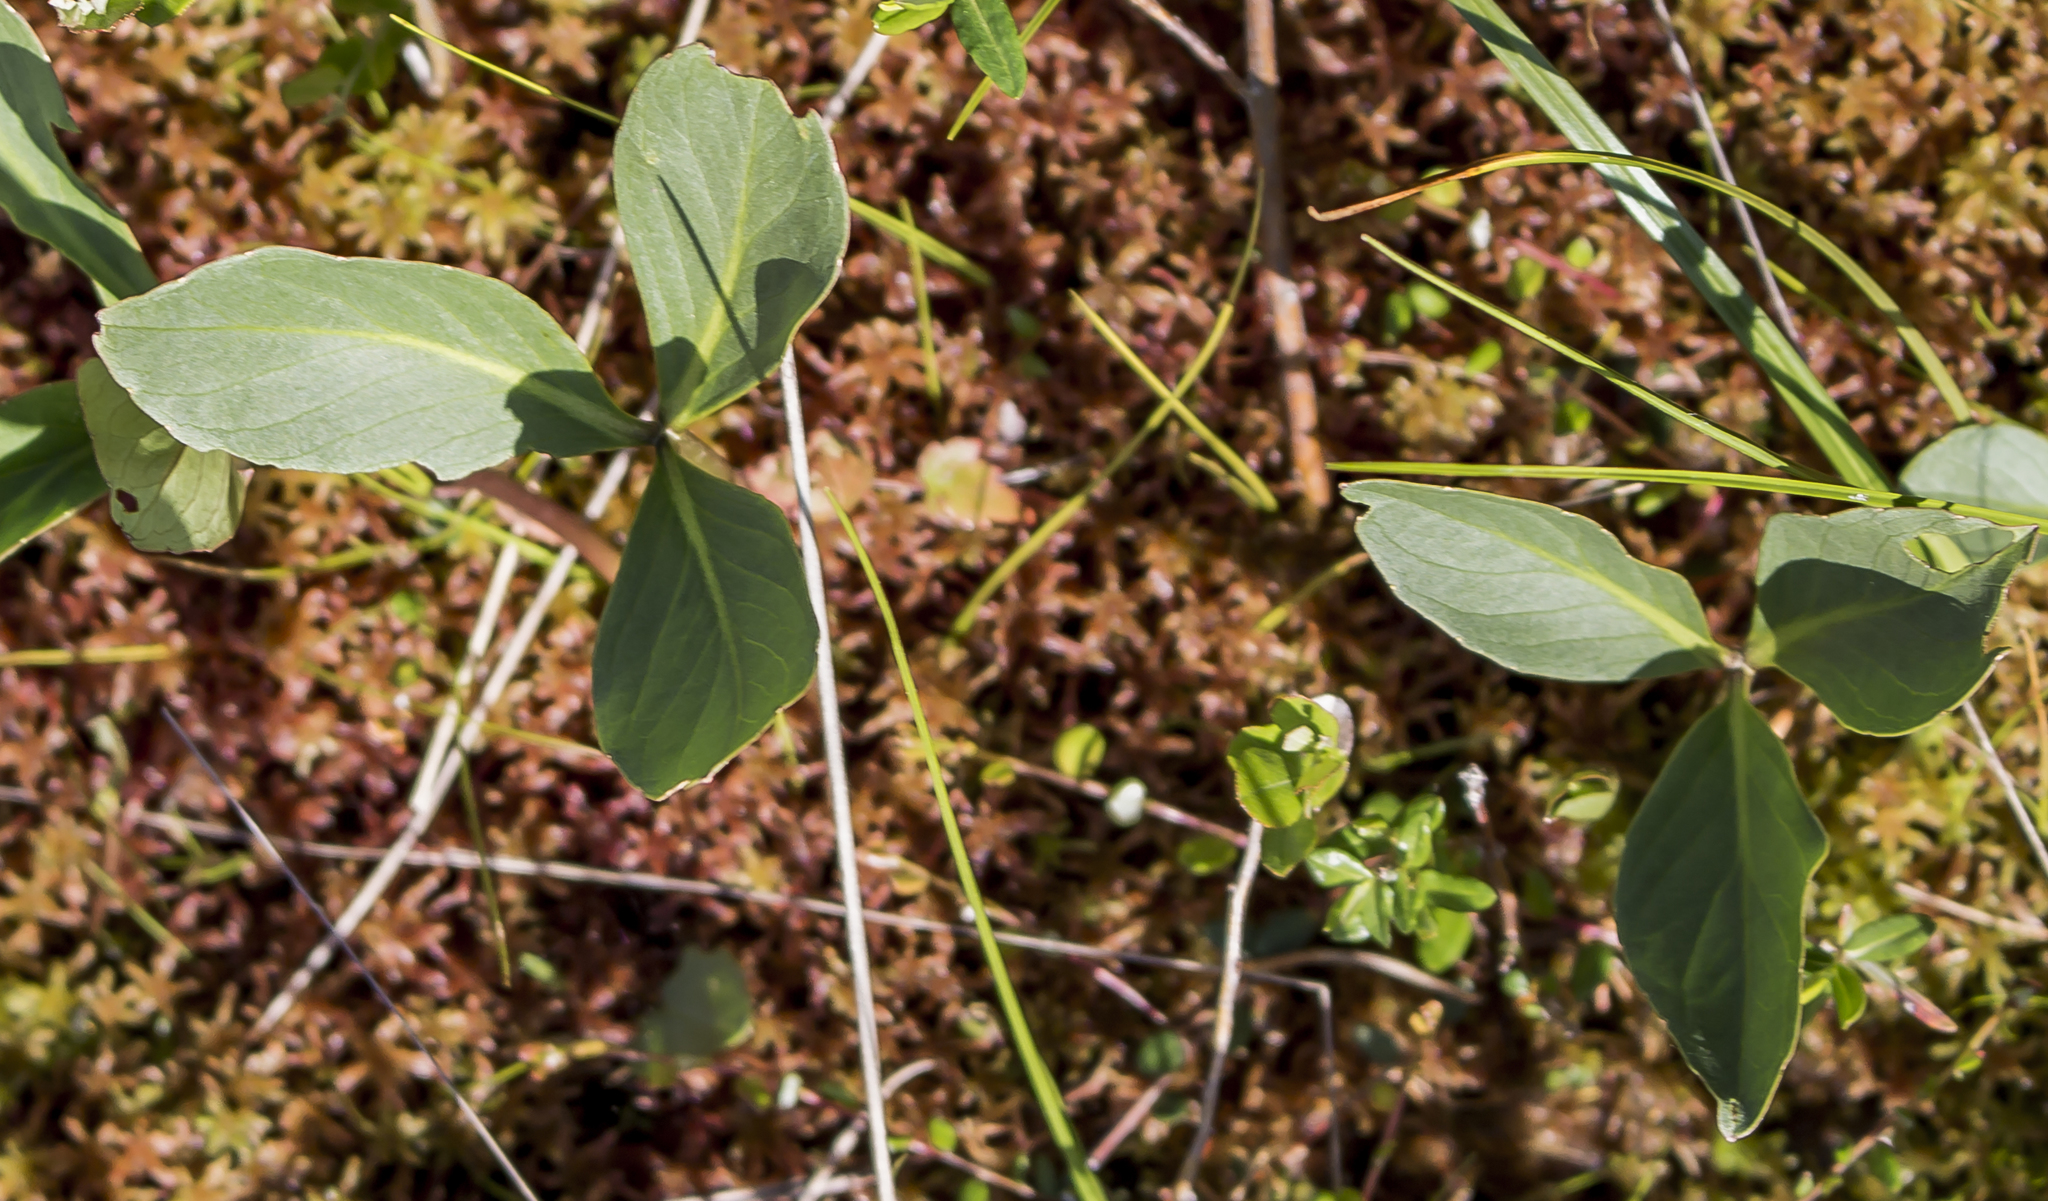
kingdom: Plantae
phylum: Tracheophyta
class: Magnoliopsida
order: Asterales
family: Menyanthaceae
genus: Menyanthes
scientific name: Menyanthes trifoliata
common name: Bogbean
